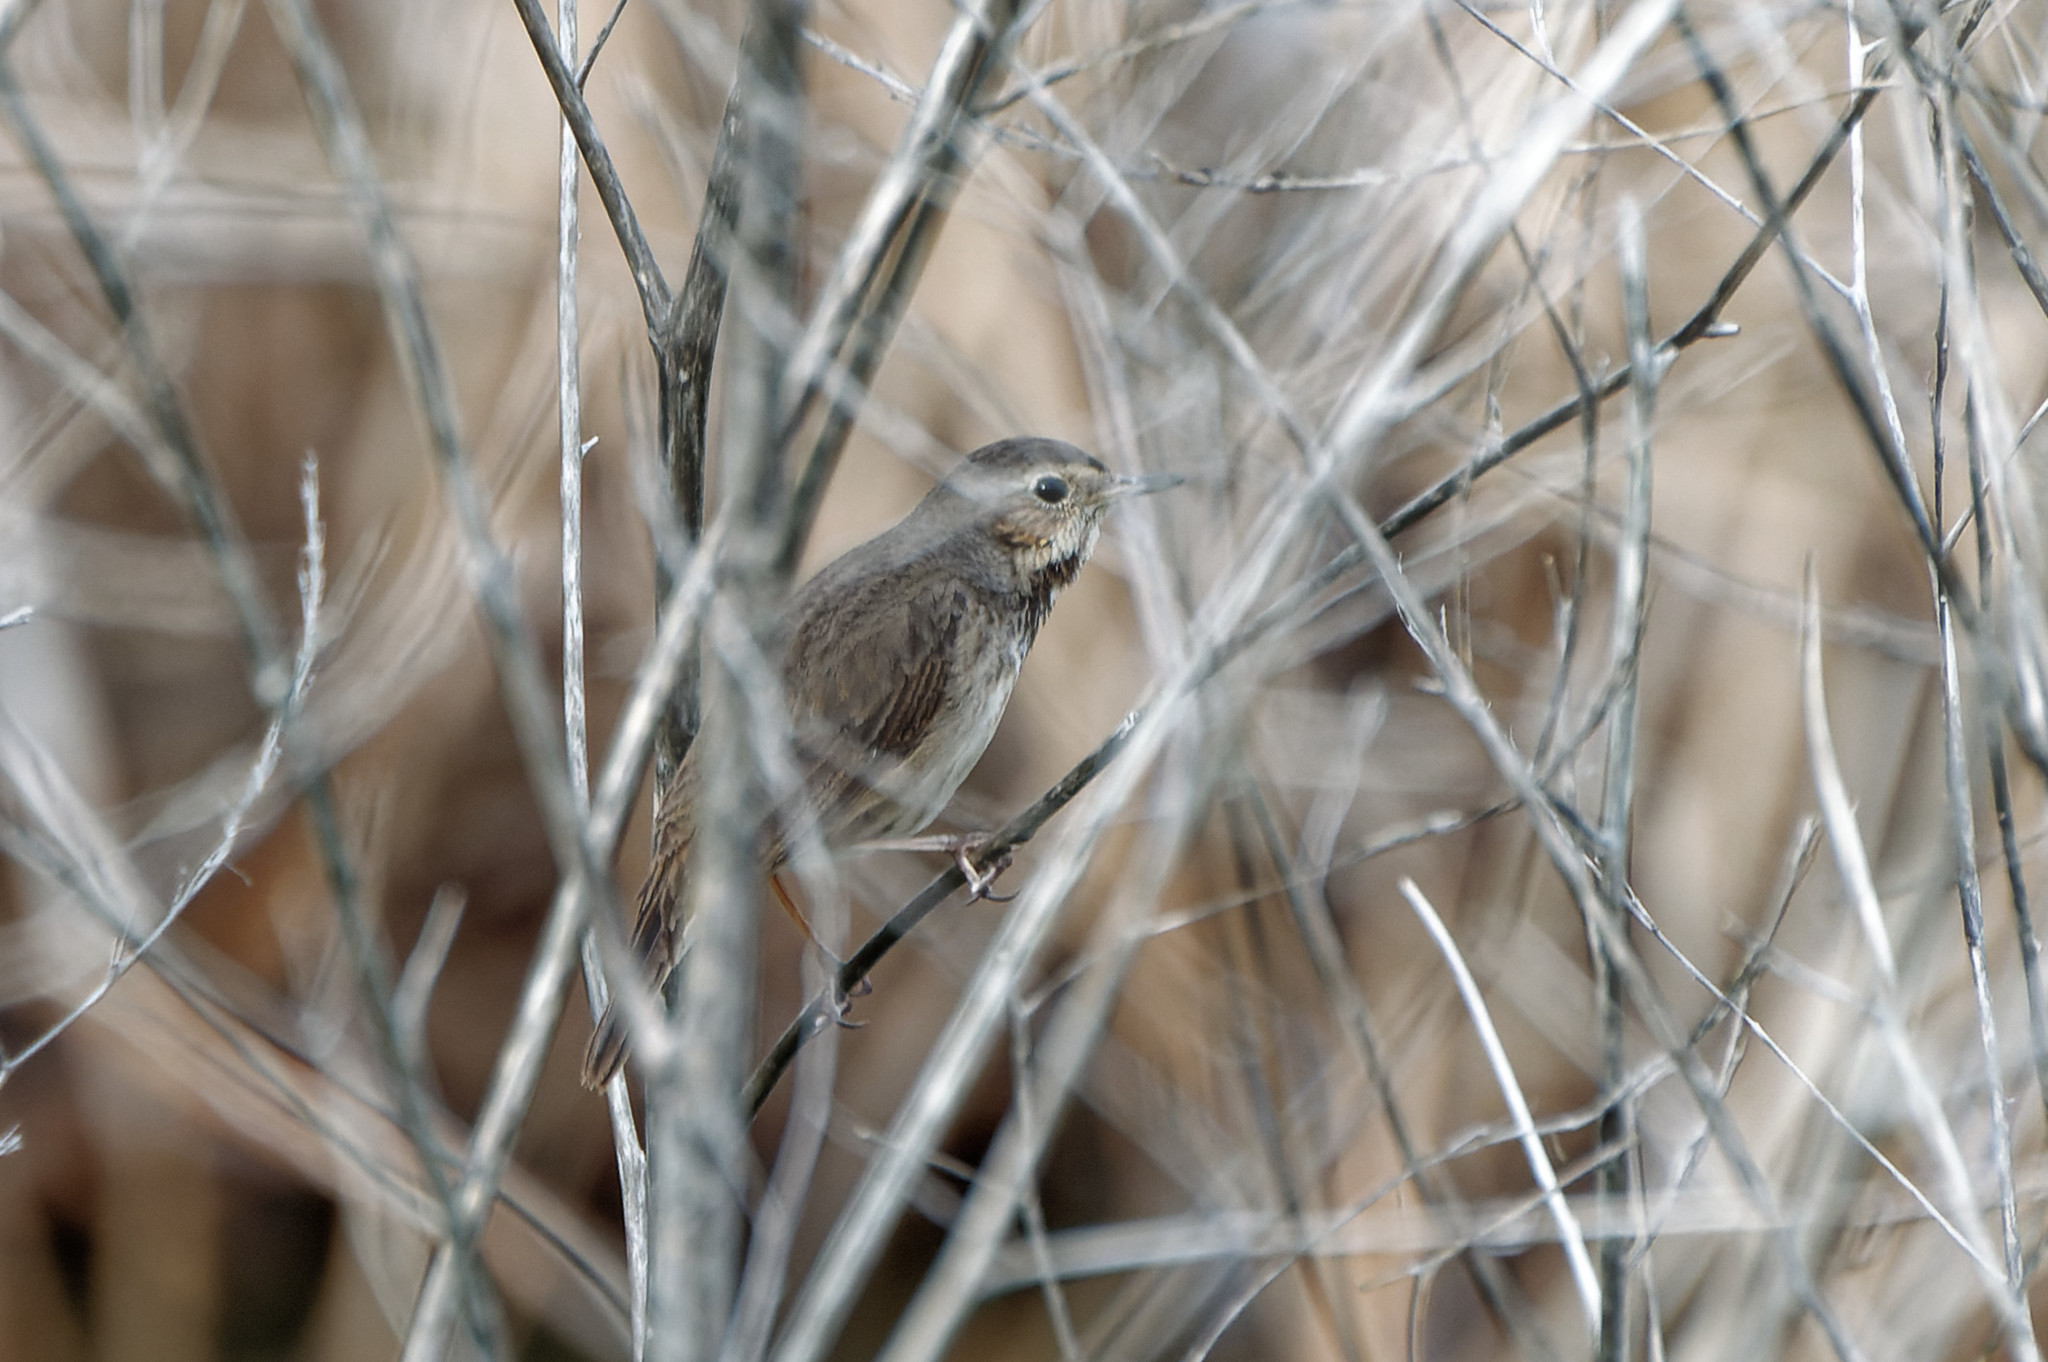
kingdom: Animalia
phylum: Chordata
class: Aves
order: Passeriformes
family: Muscicapidae
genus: Luscinia
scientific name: Luscinia svecica
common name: Bluethroat
